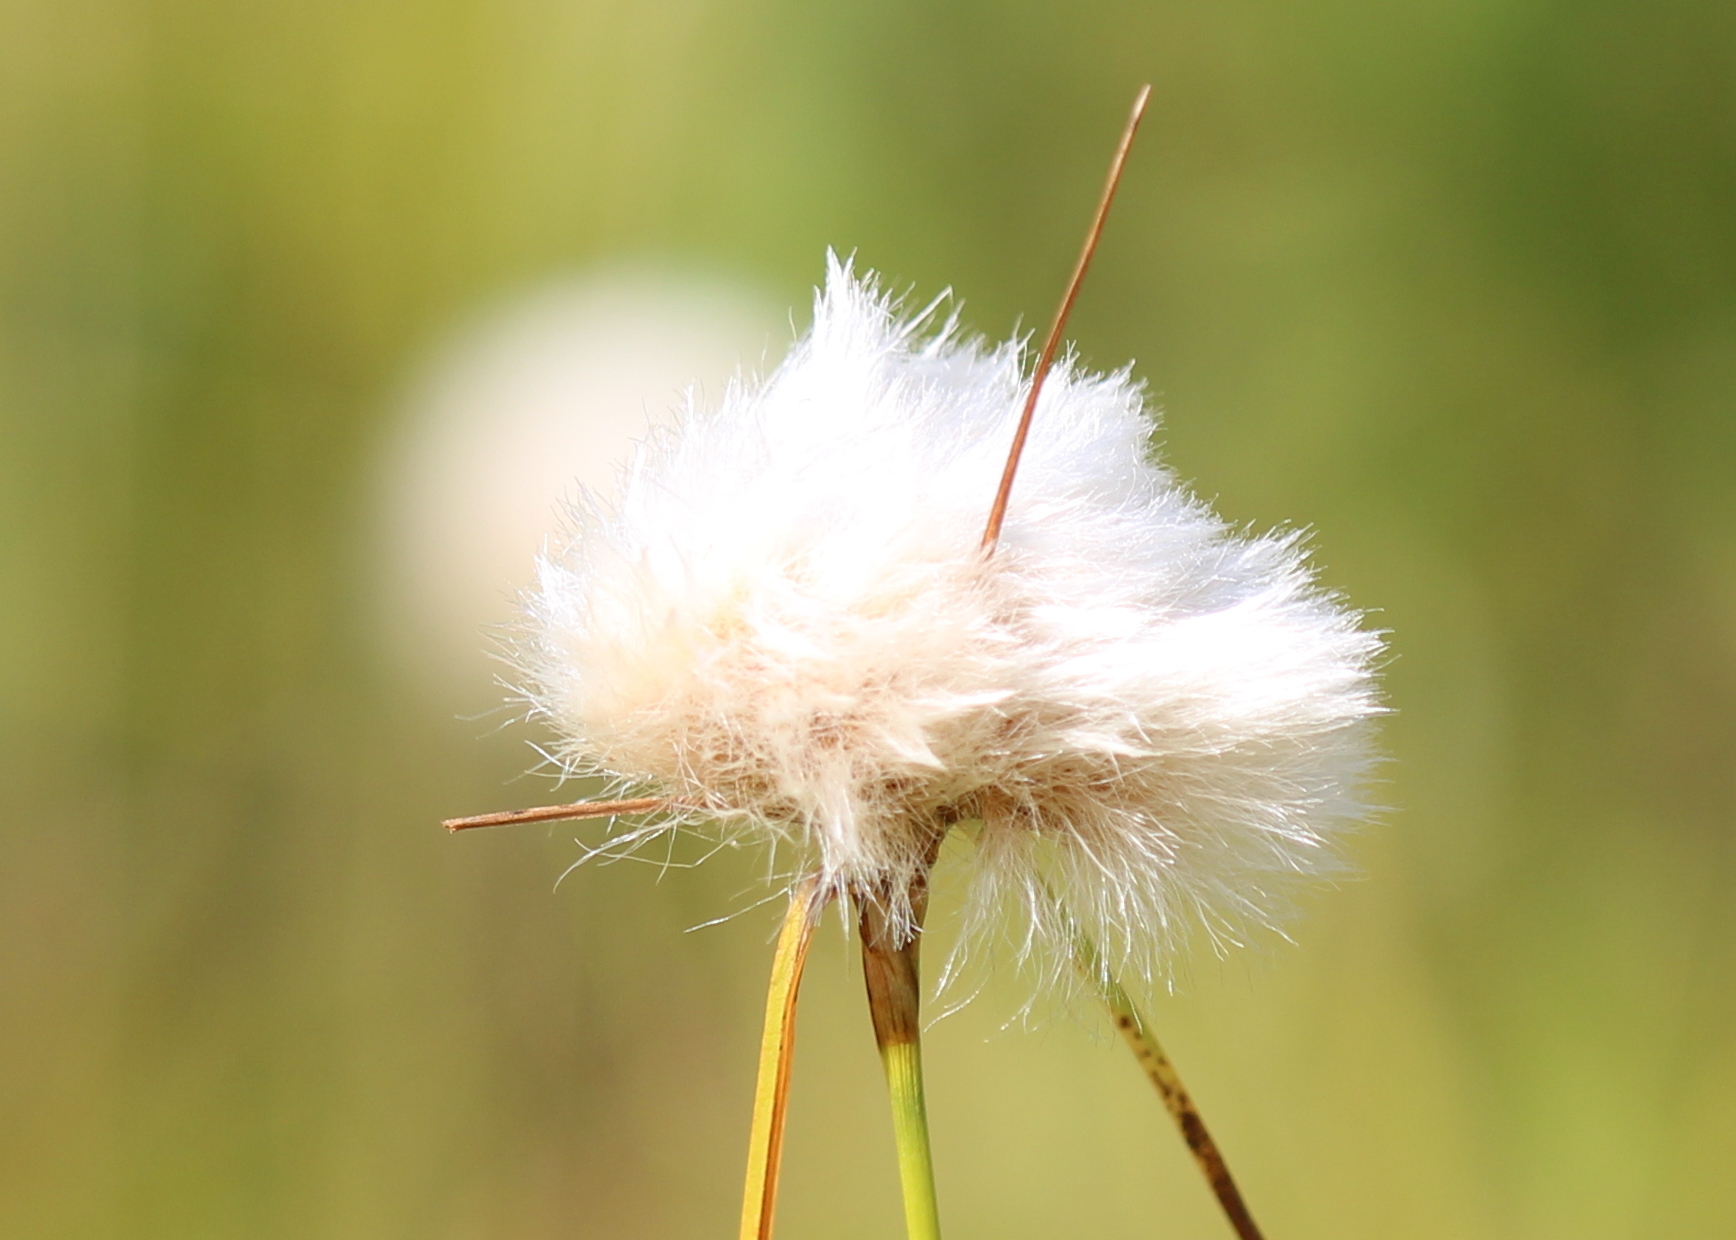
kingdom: Plantae
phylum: Tracheophyta
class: Liliopsida
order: Poales
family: Cyperaceae
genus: Eriophorum
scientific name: Eriophorum virginicum
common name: Tawny cottongrass
